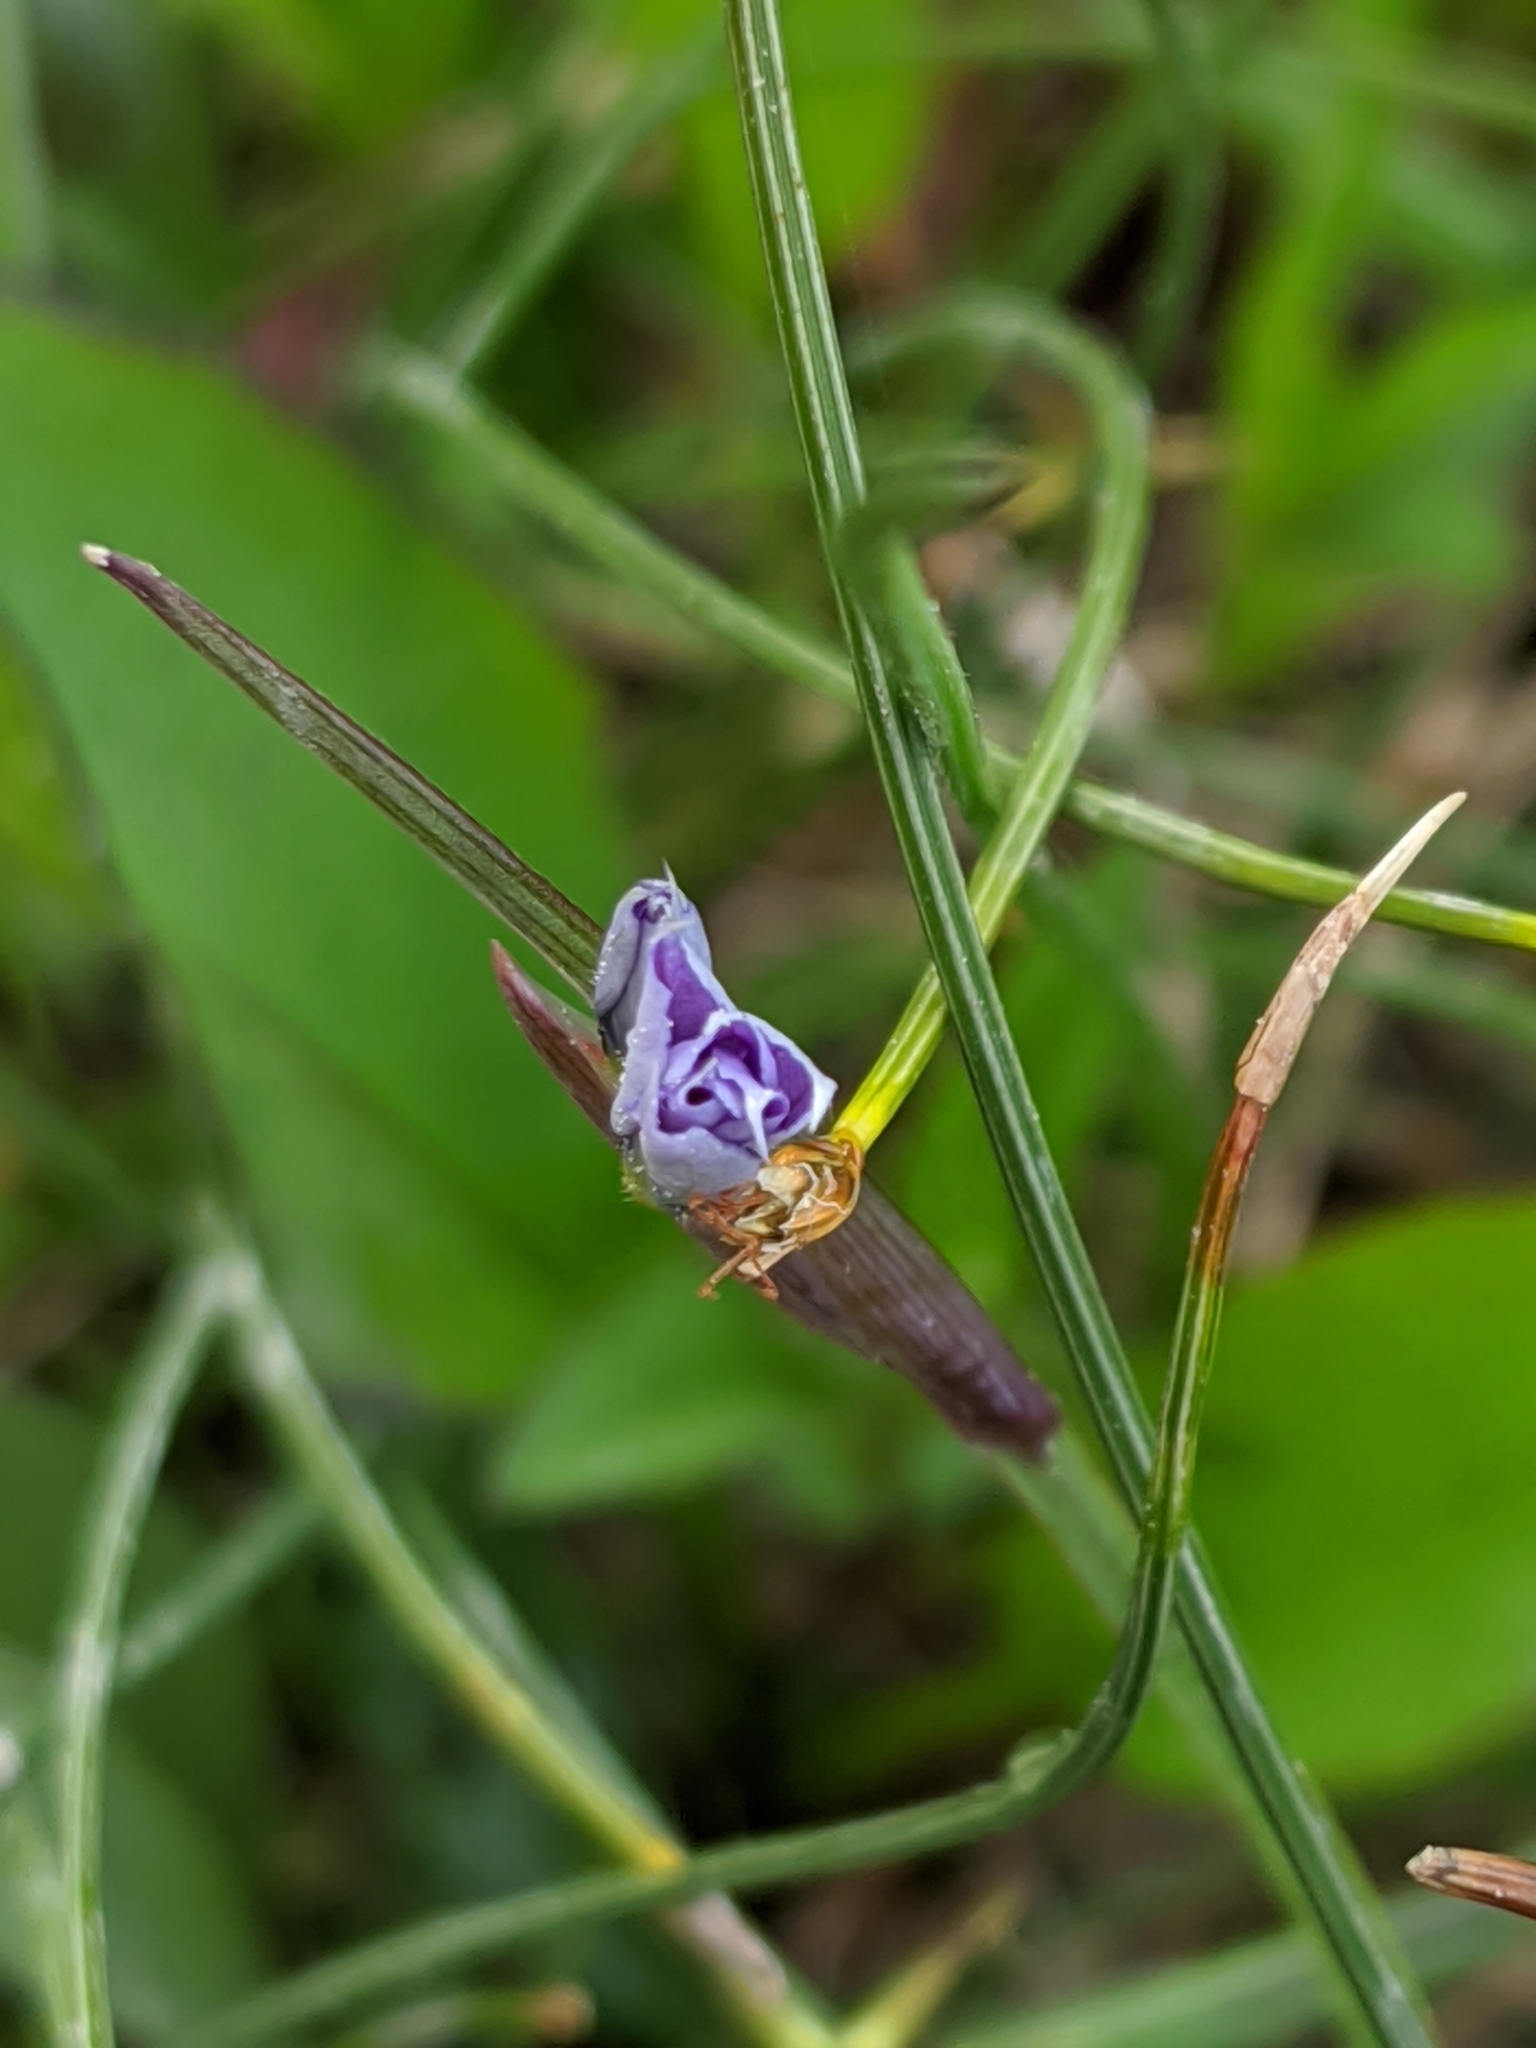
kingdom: Plantae
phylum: Tracheophyta
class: Liliopsida
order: Asparagales
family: Iridaceae
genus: Sisyrinchium
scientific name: Sisyrinchium montanum
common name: American blue-eyed-grass
